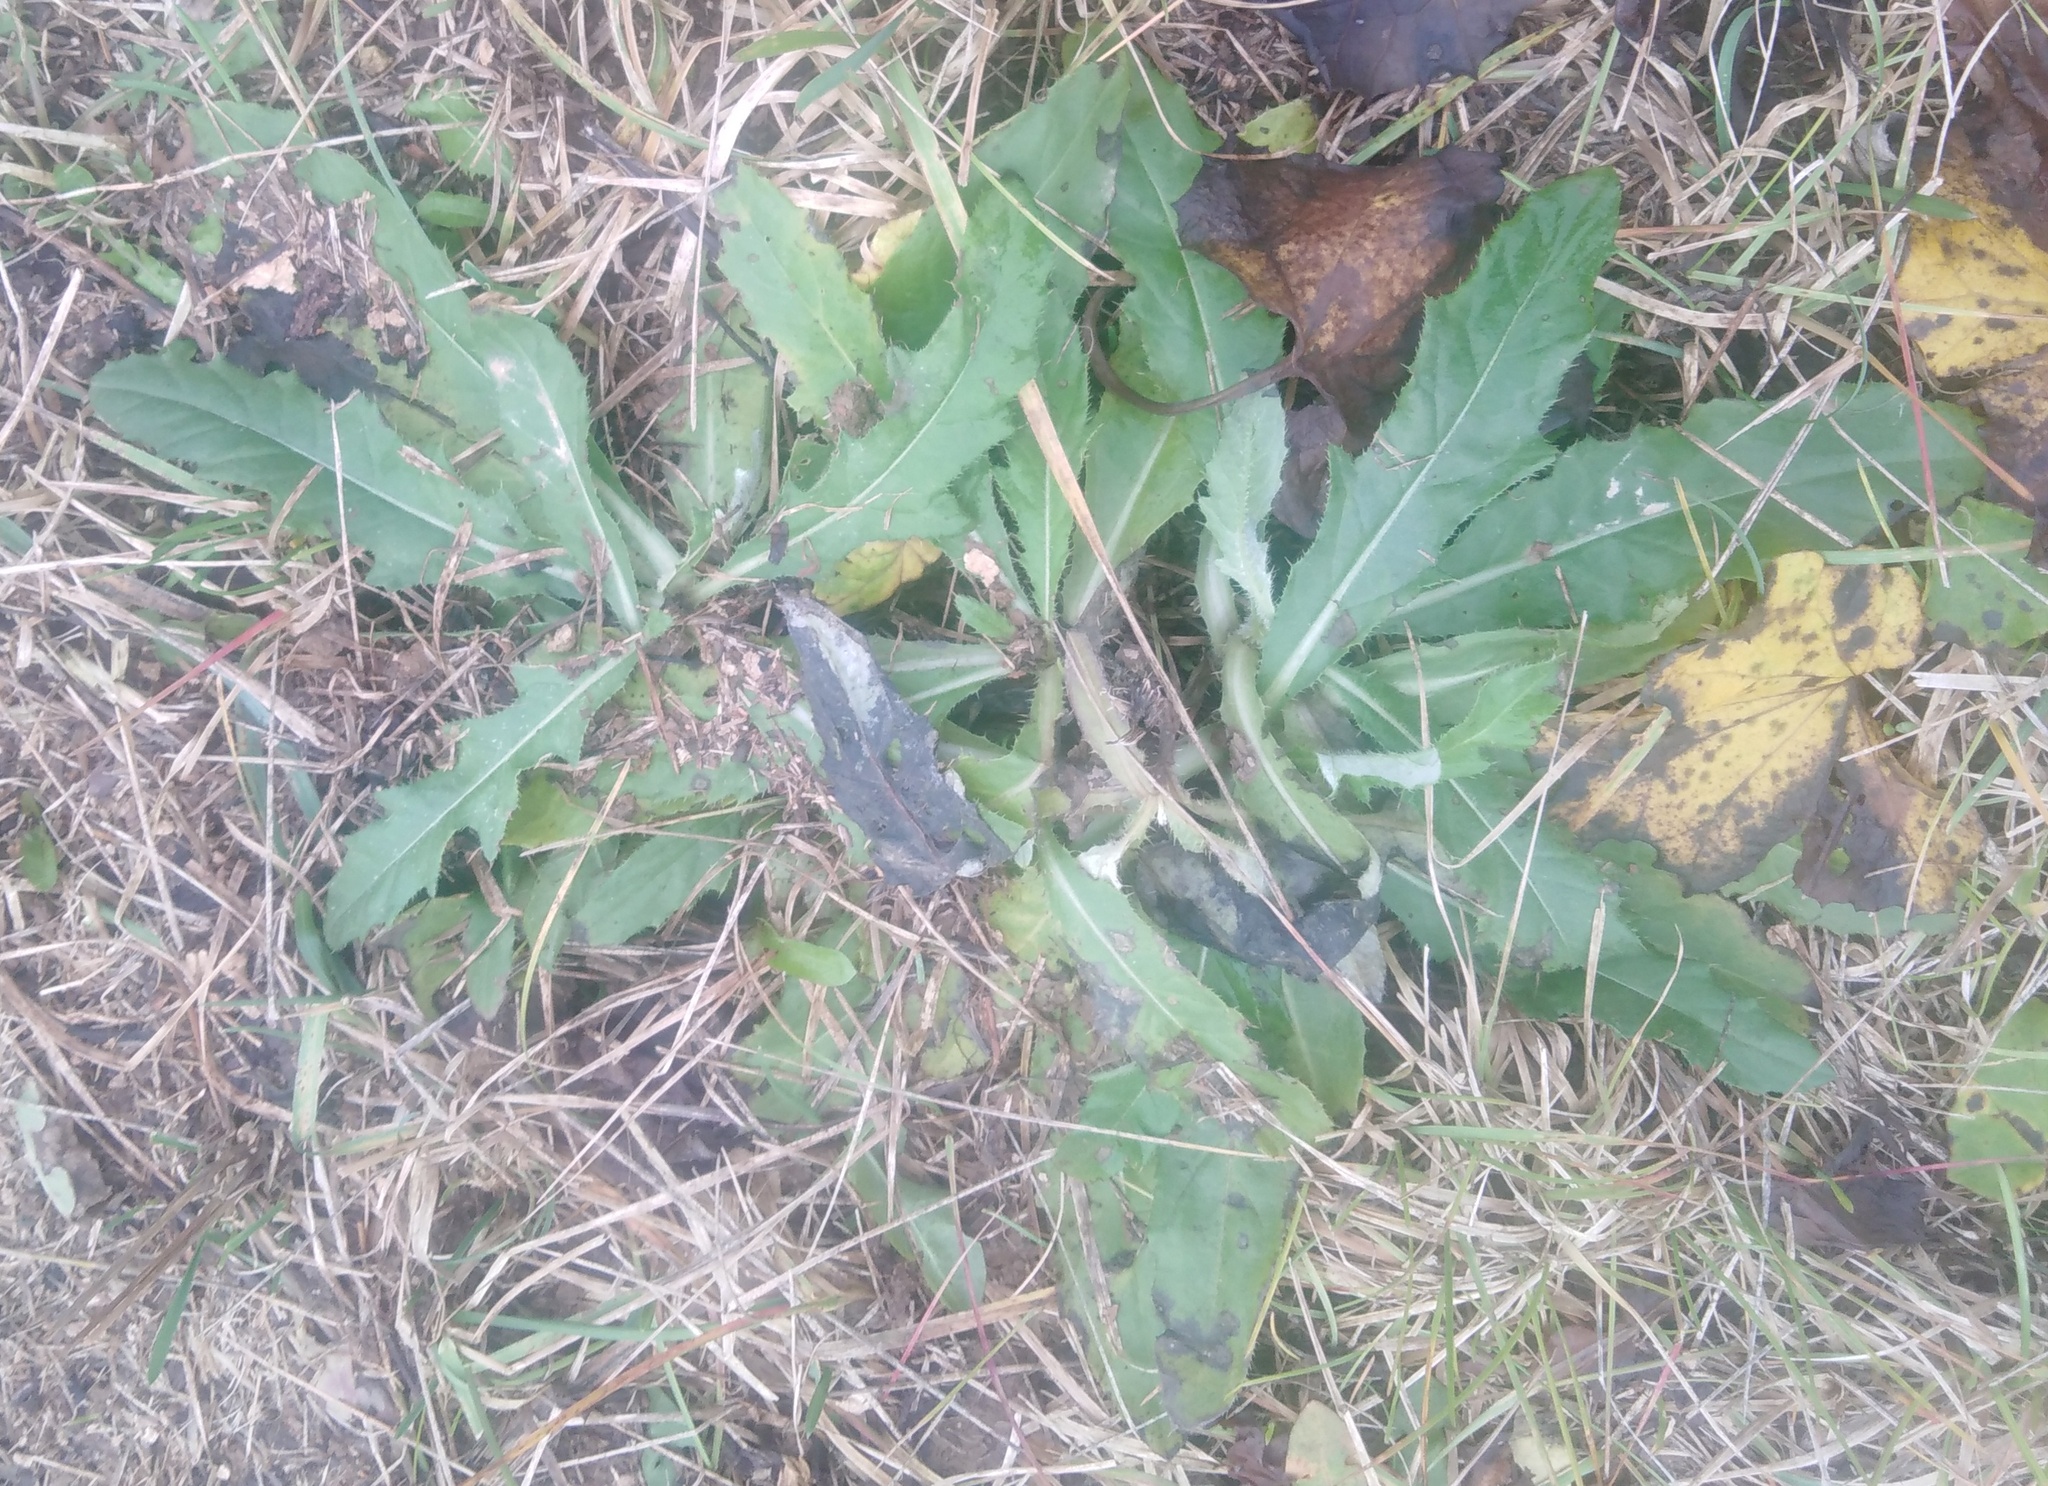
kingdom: Plantae
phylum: Tracheophyta
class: Magnoliopsida
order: Asterales
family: Asteraceae
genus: Cirsium
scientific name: Cirsium arvense
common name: Creeping thistle
